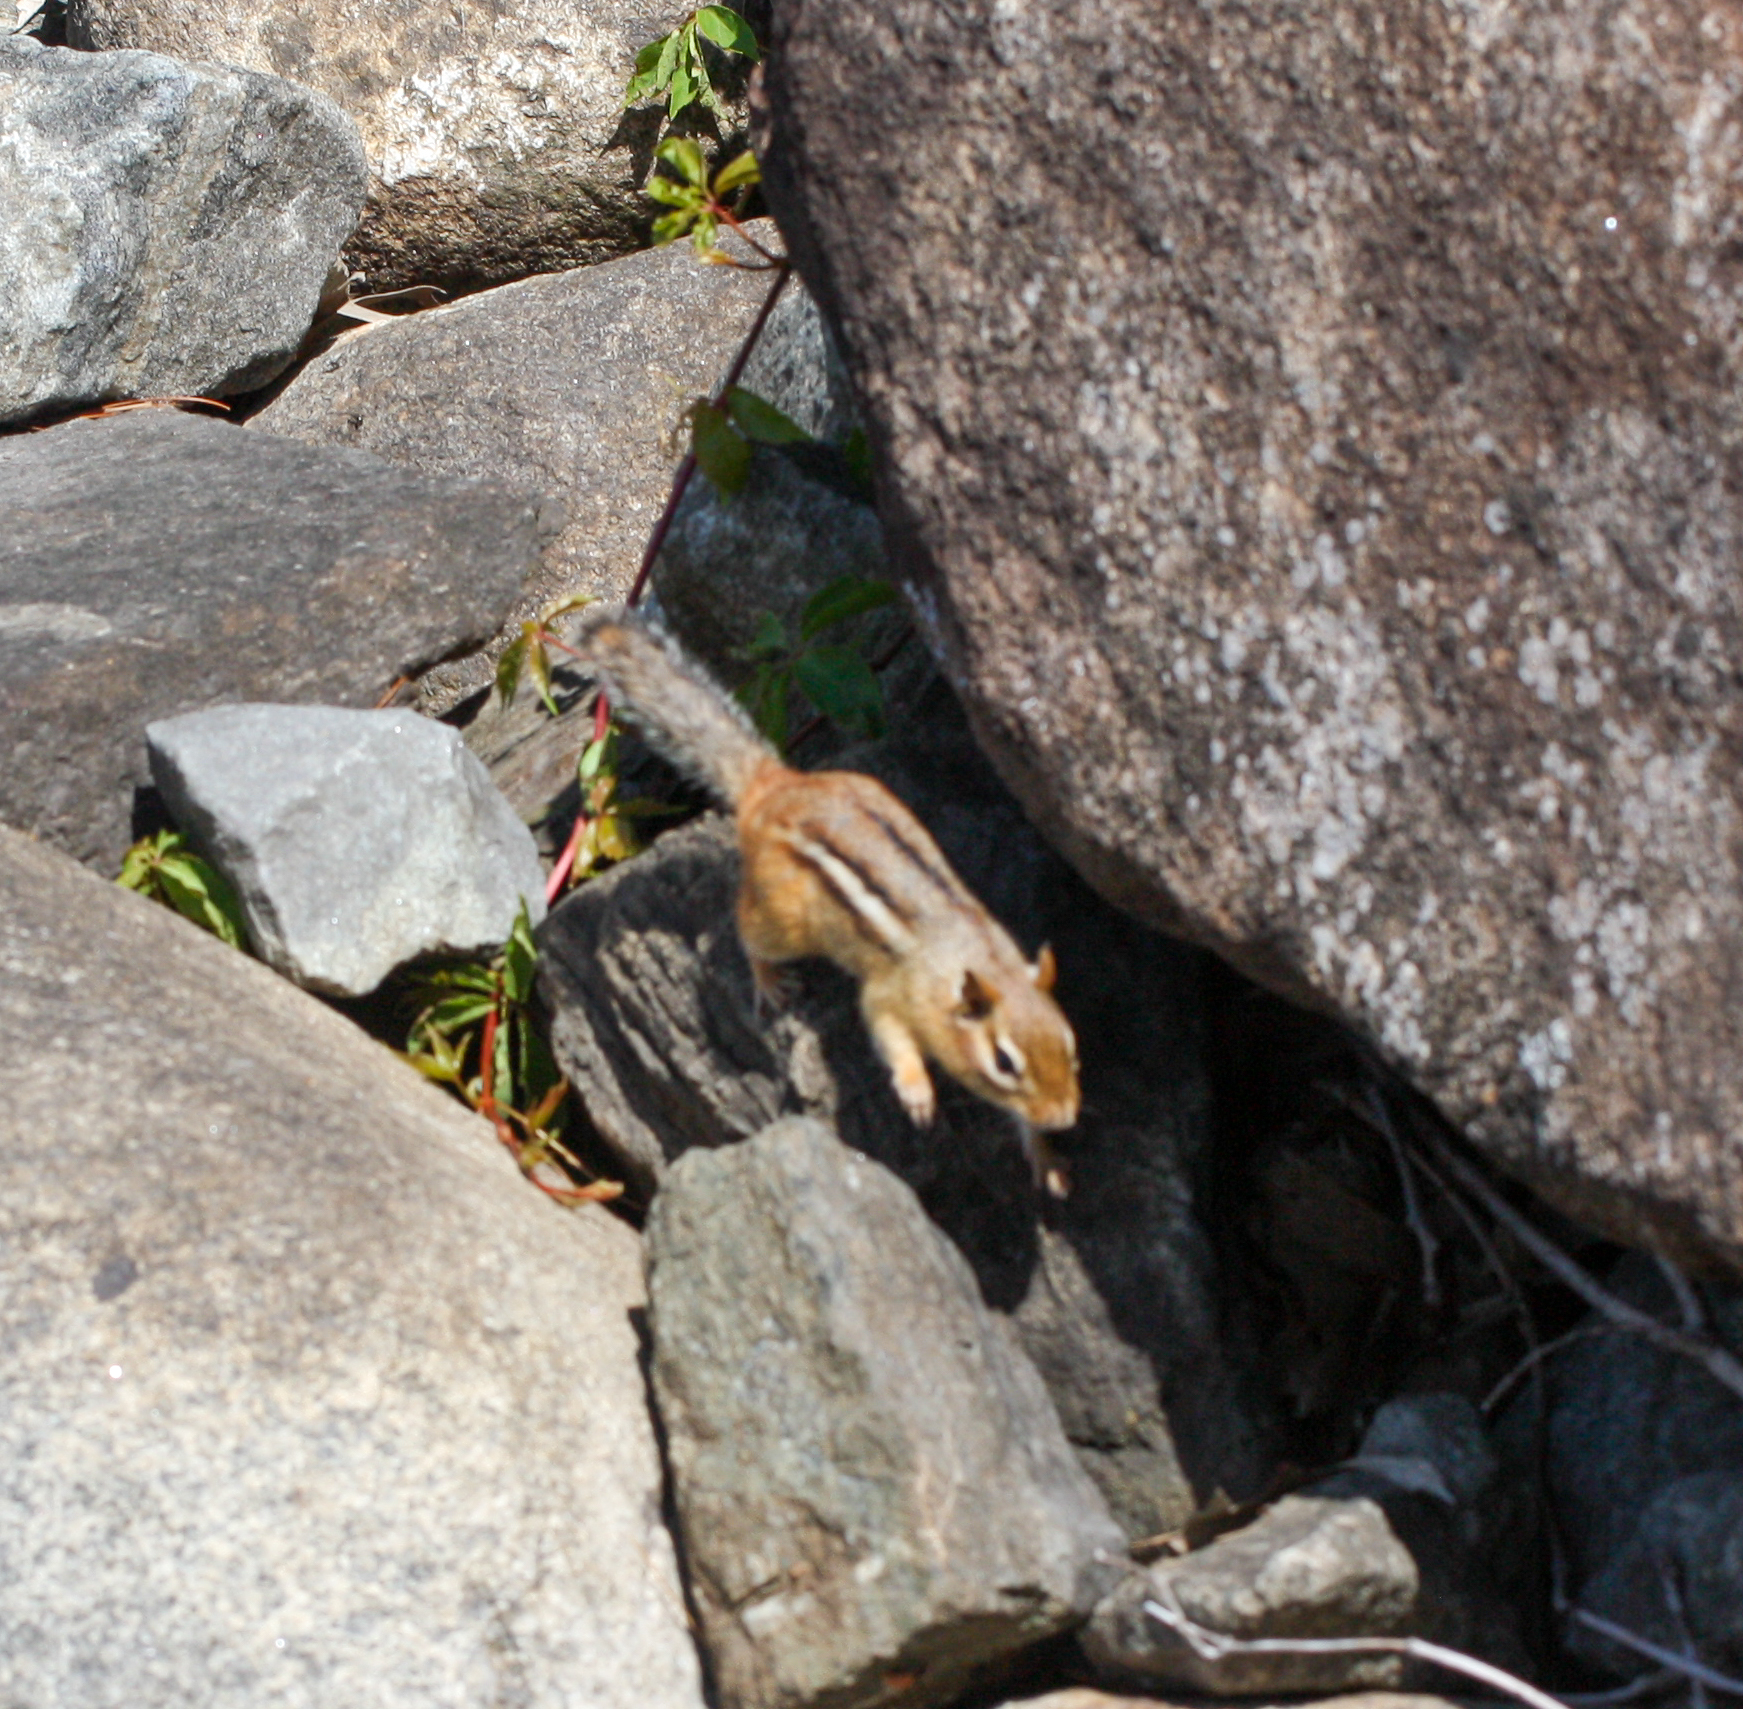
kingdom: Animalia
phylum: Chordata
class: Mammalia
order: Rodentia
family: Sciuridae
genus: Tamias
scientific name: Tamias striatus
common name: Eastern chipmunk
